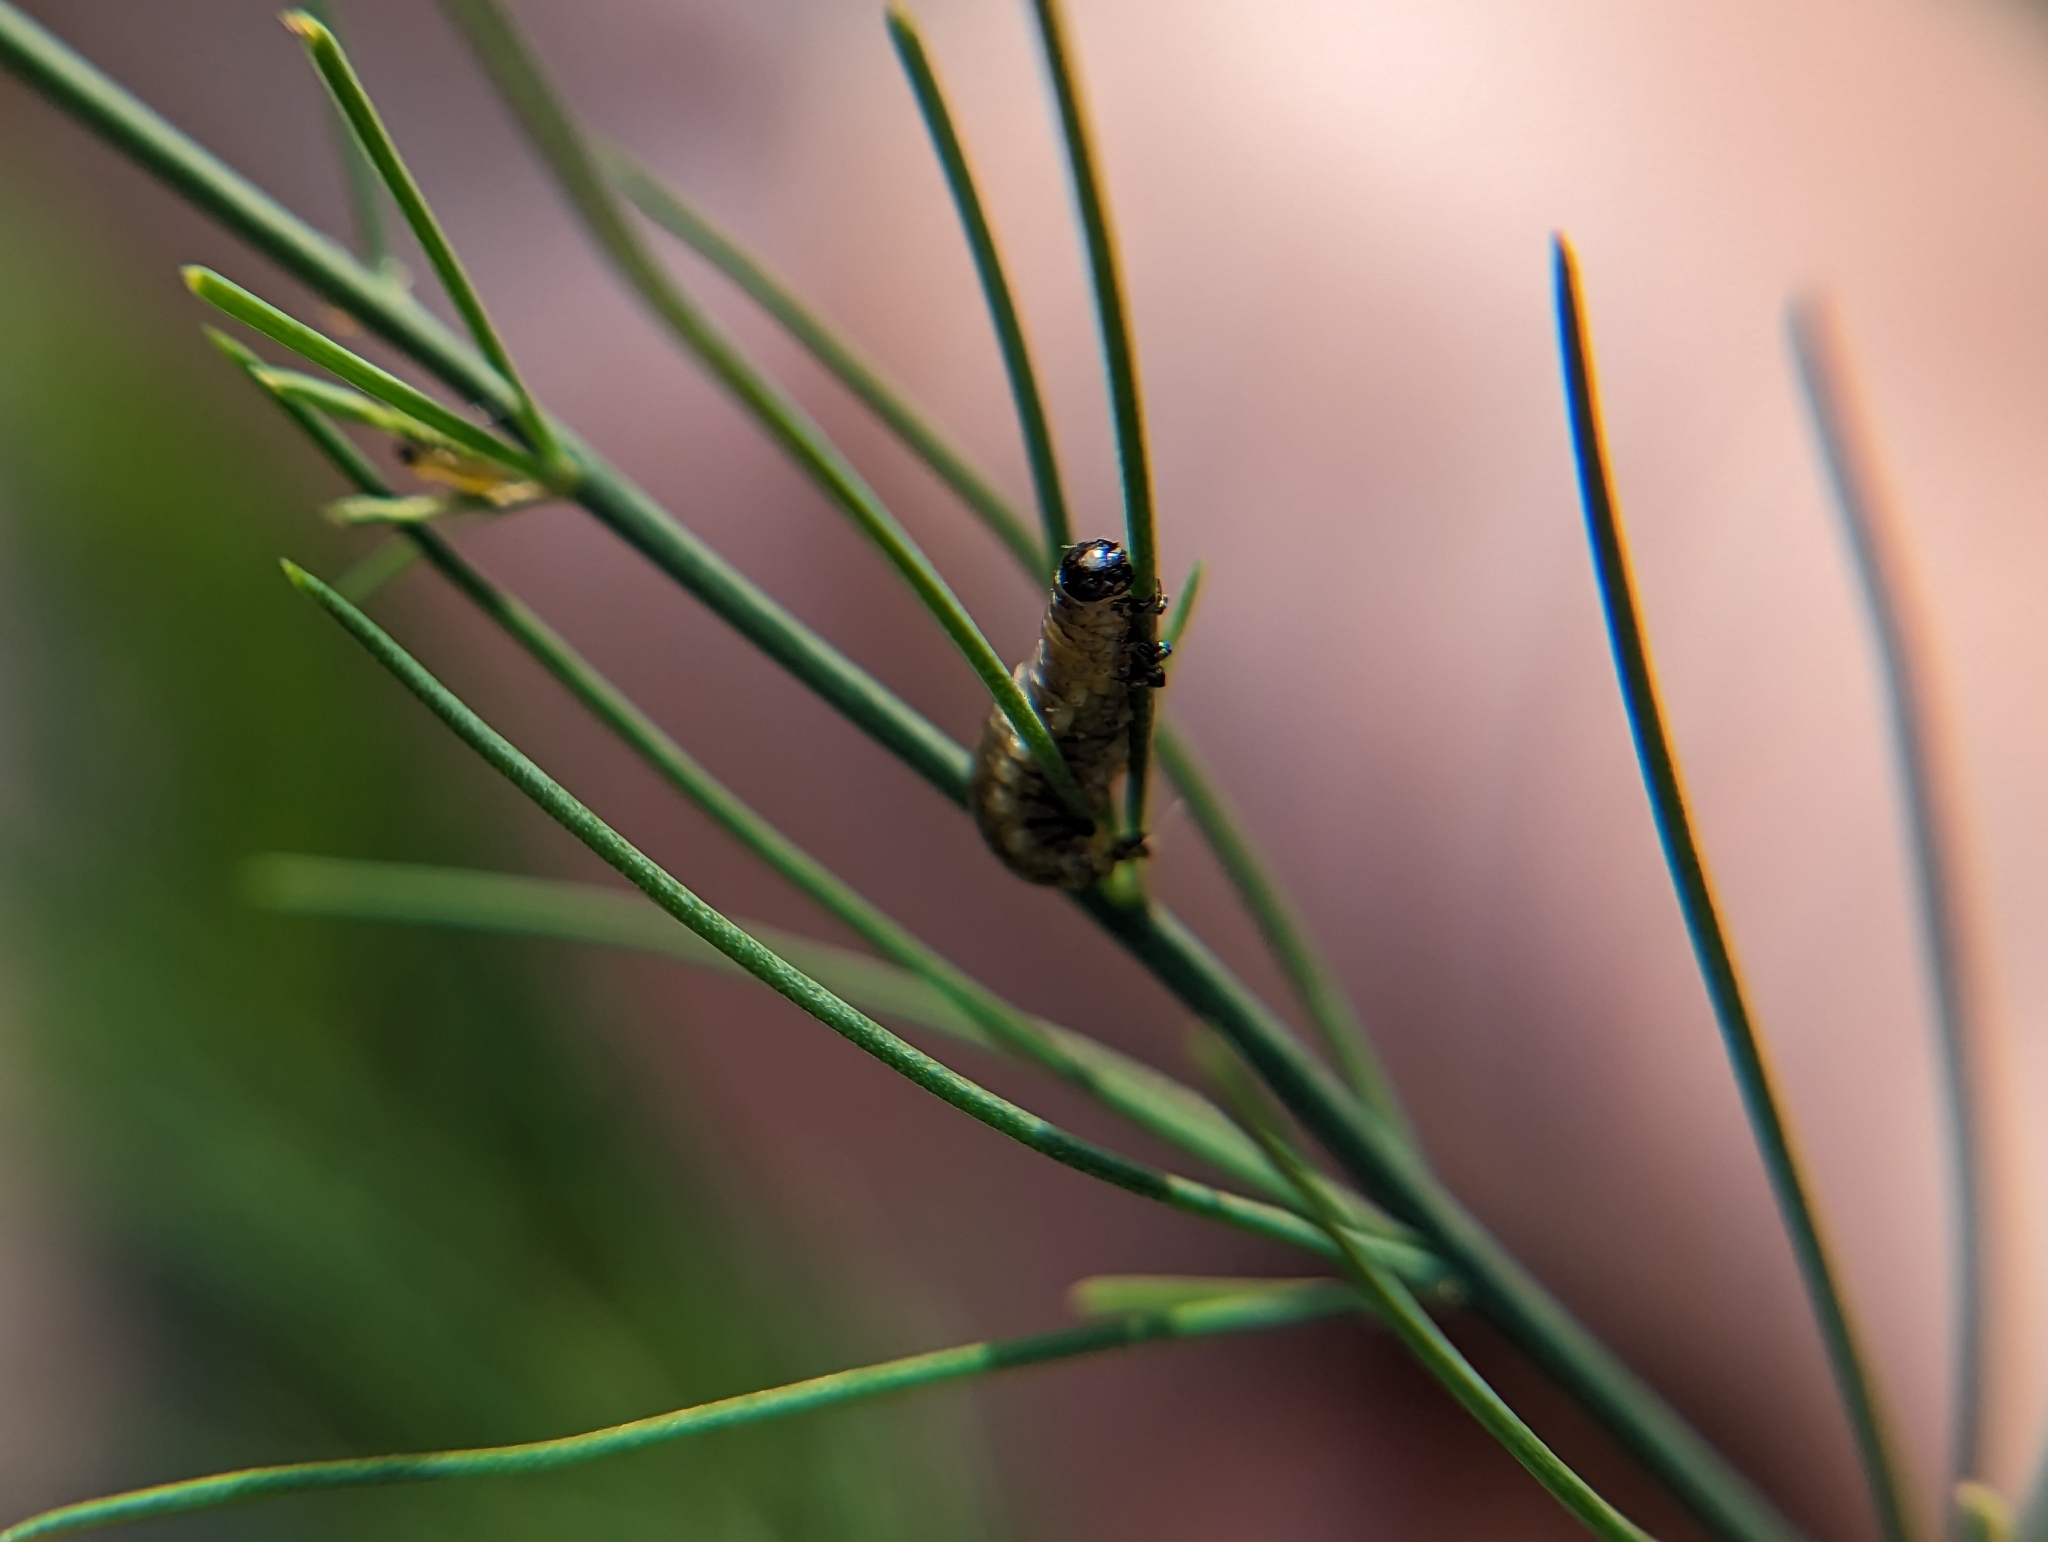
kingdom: Animalia
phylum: Arthropoda
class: Insecta
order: Coleoptera
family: Chrysomelidae
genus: Crioceris
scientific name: Crioceris asparagi
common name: Asparagus beetle
